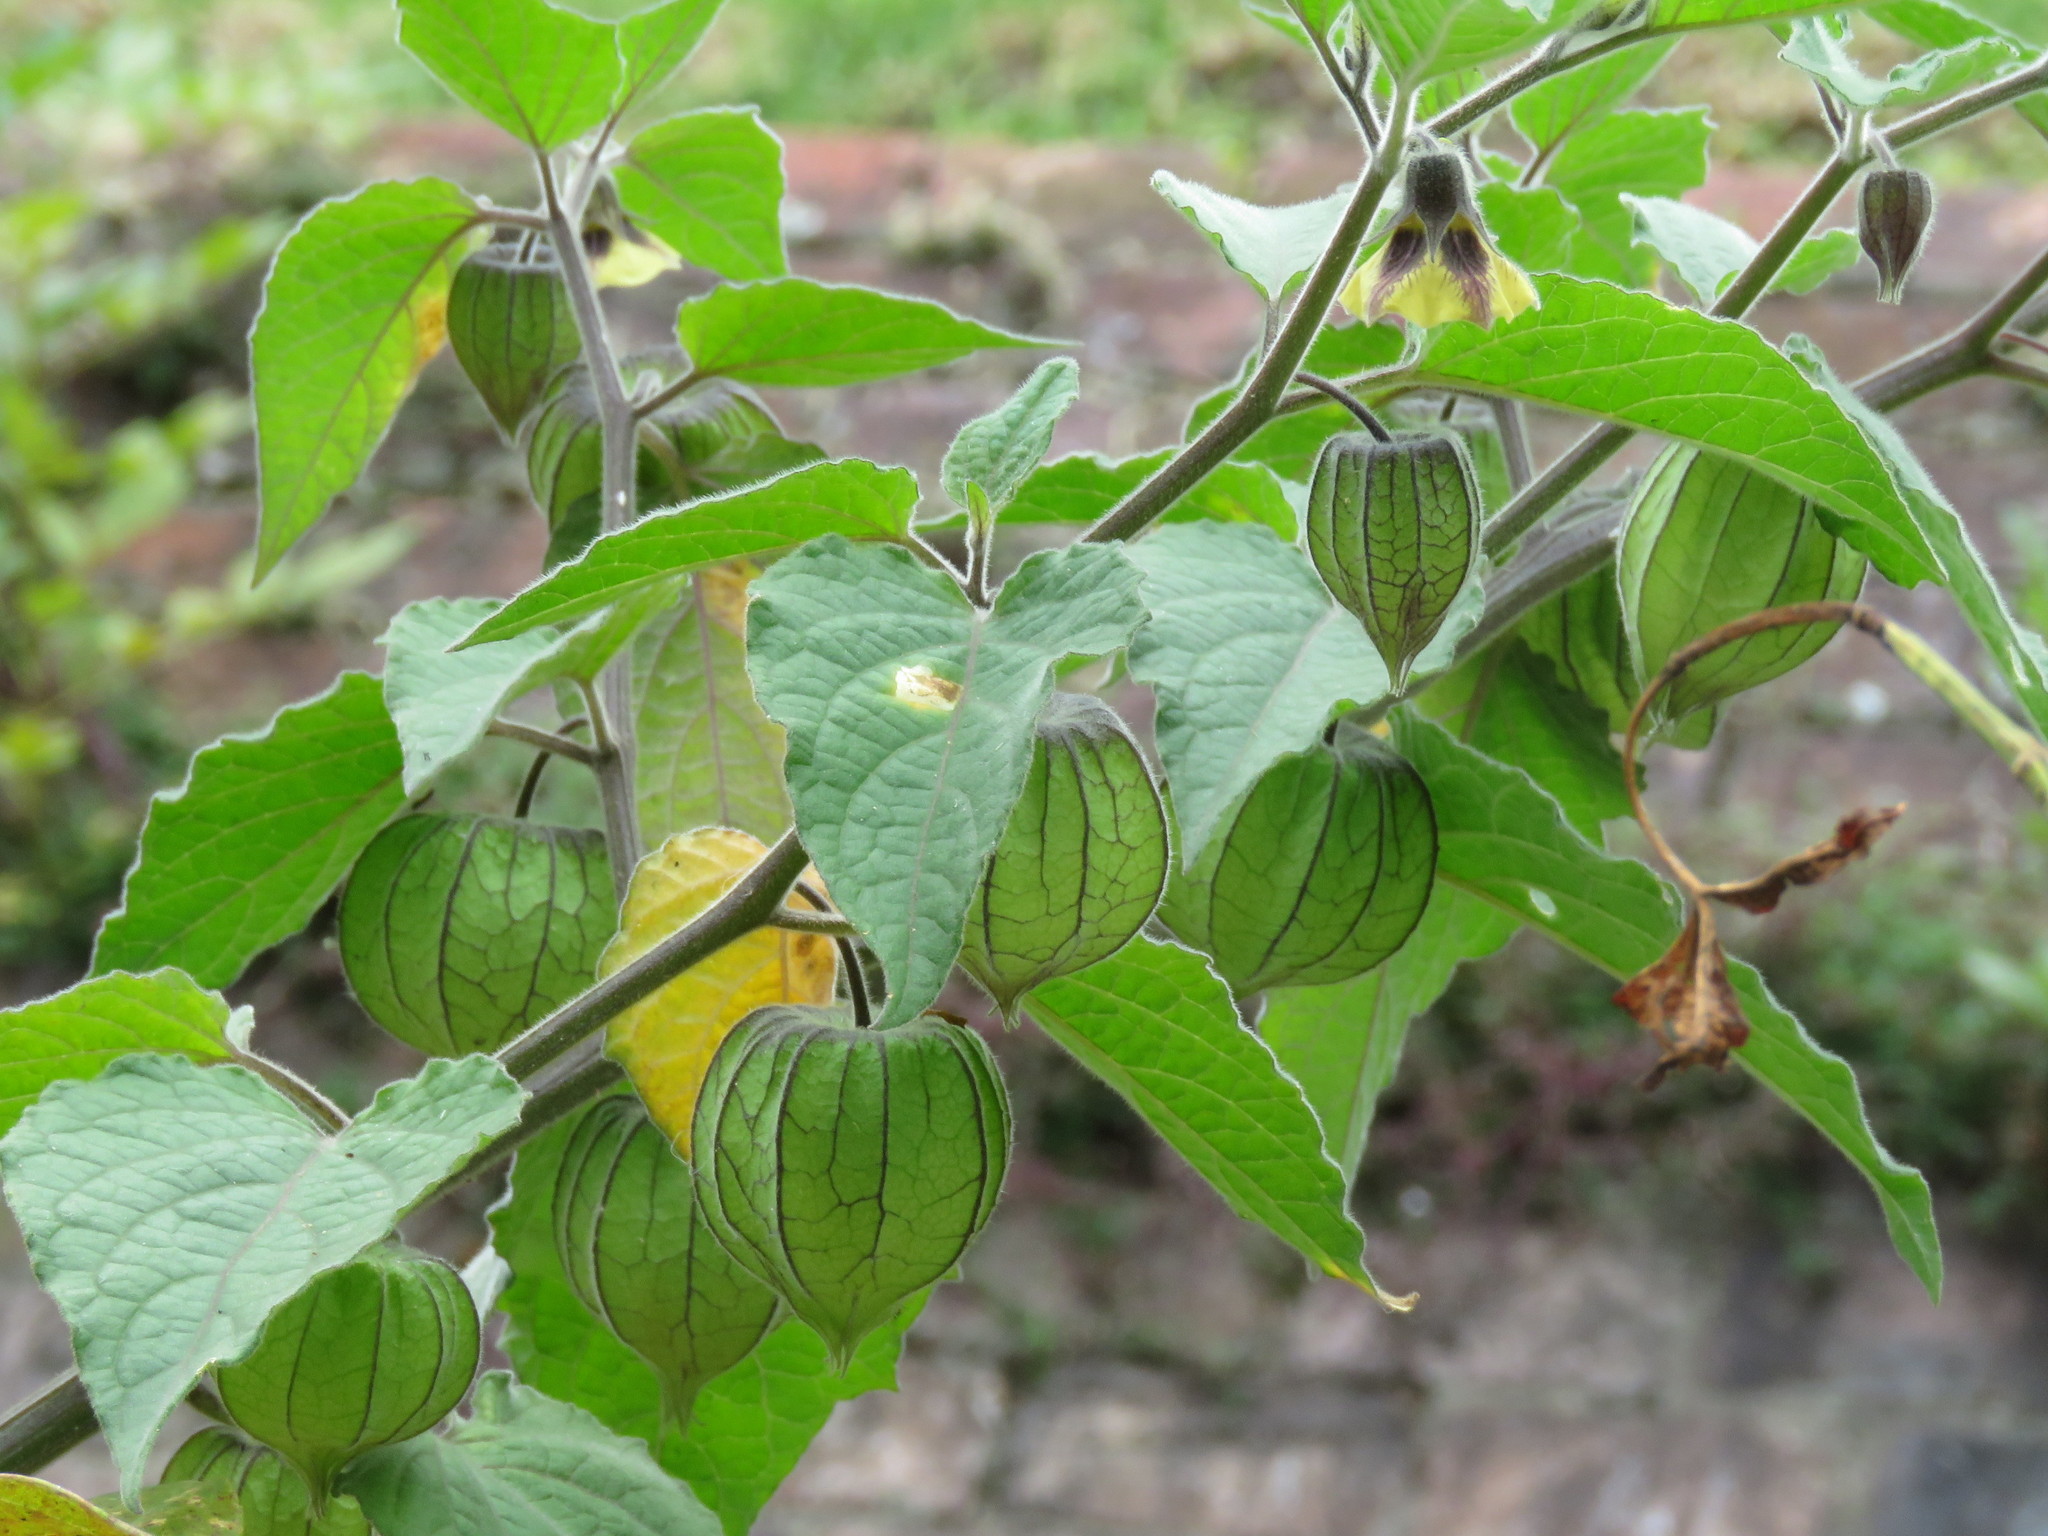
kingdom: Plantae
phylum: Tracheophyta
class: Magnoliopsida
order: Solanales
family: Solanaceae
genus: Physalis
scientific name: Physalis peruviana
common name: Cape-gooseberry
